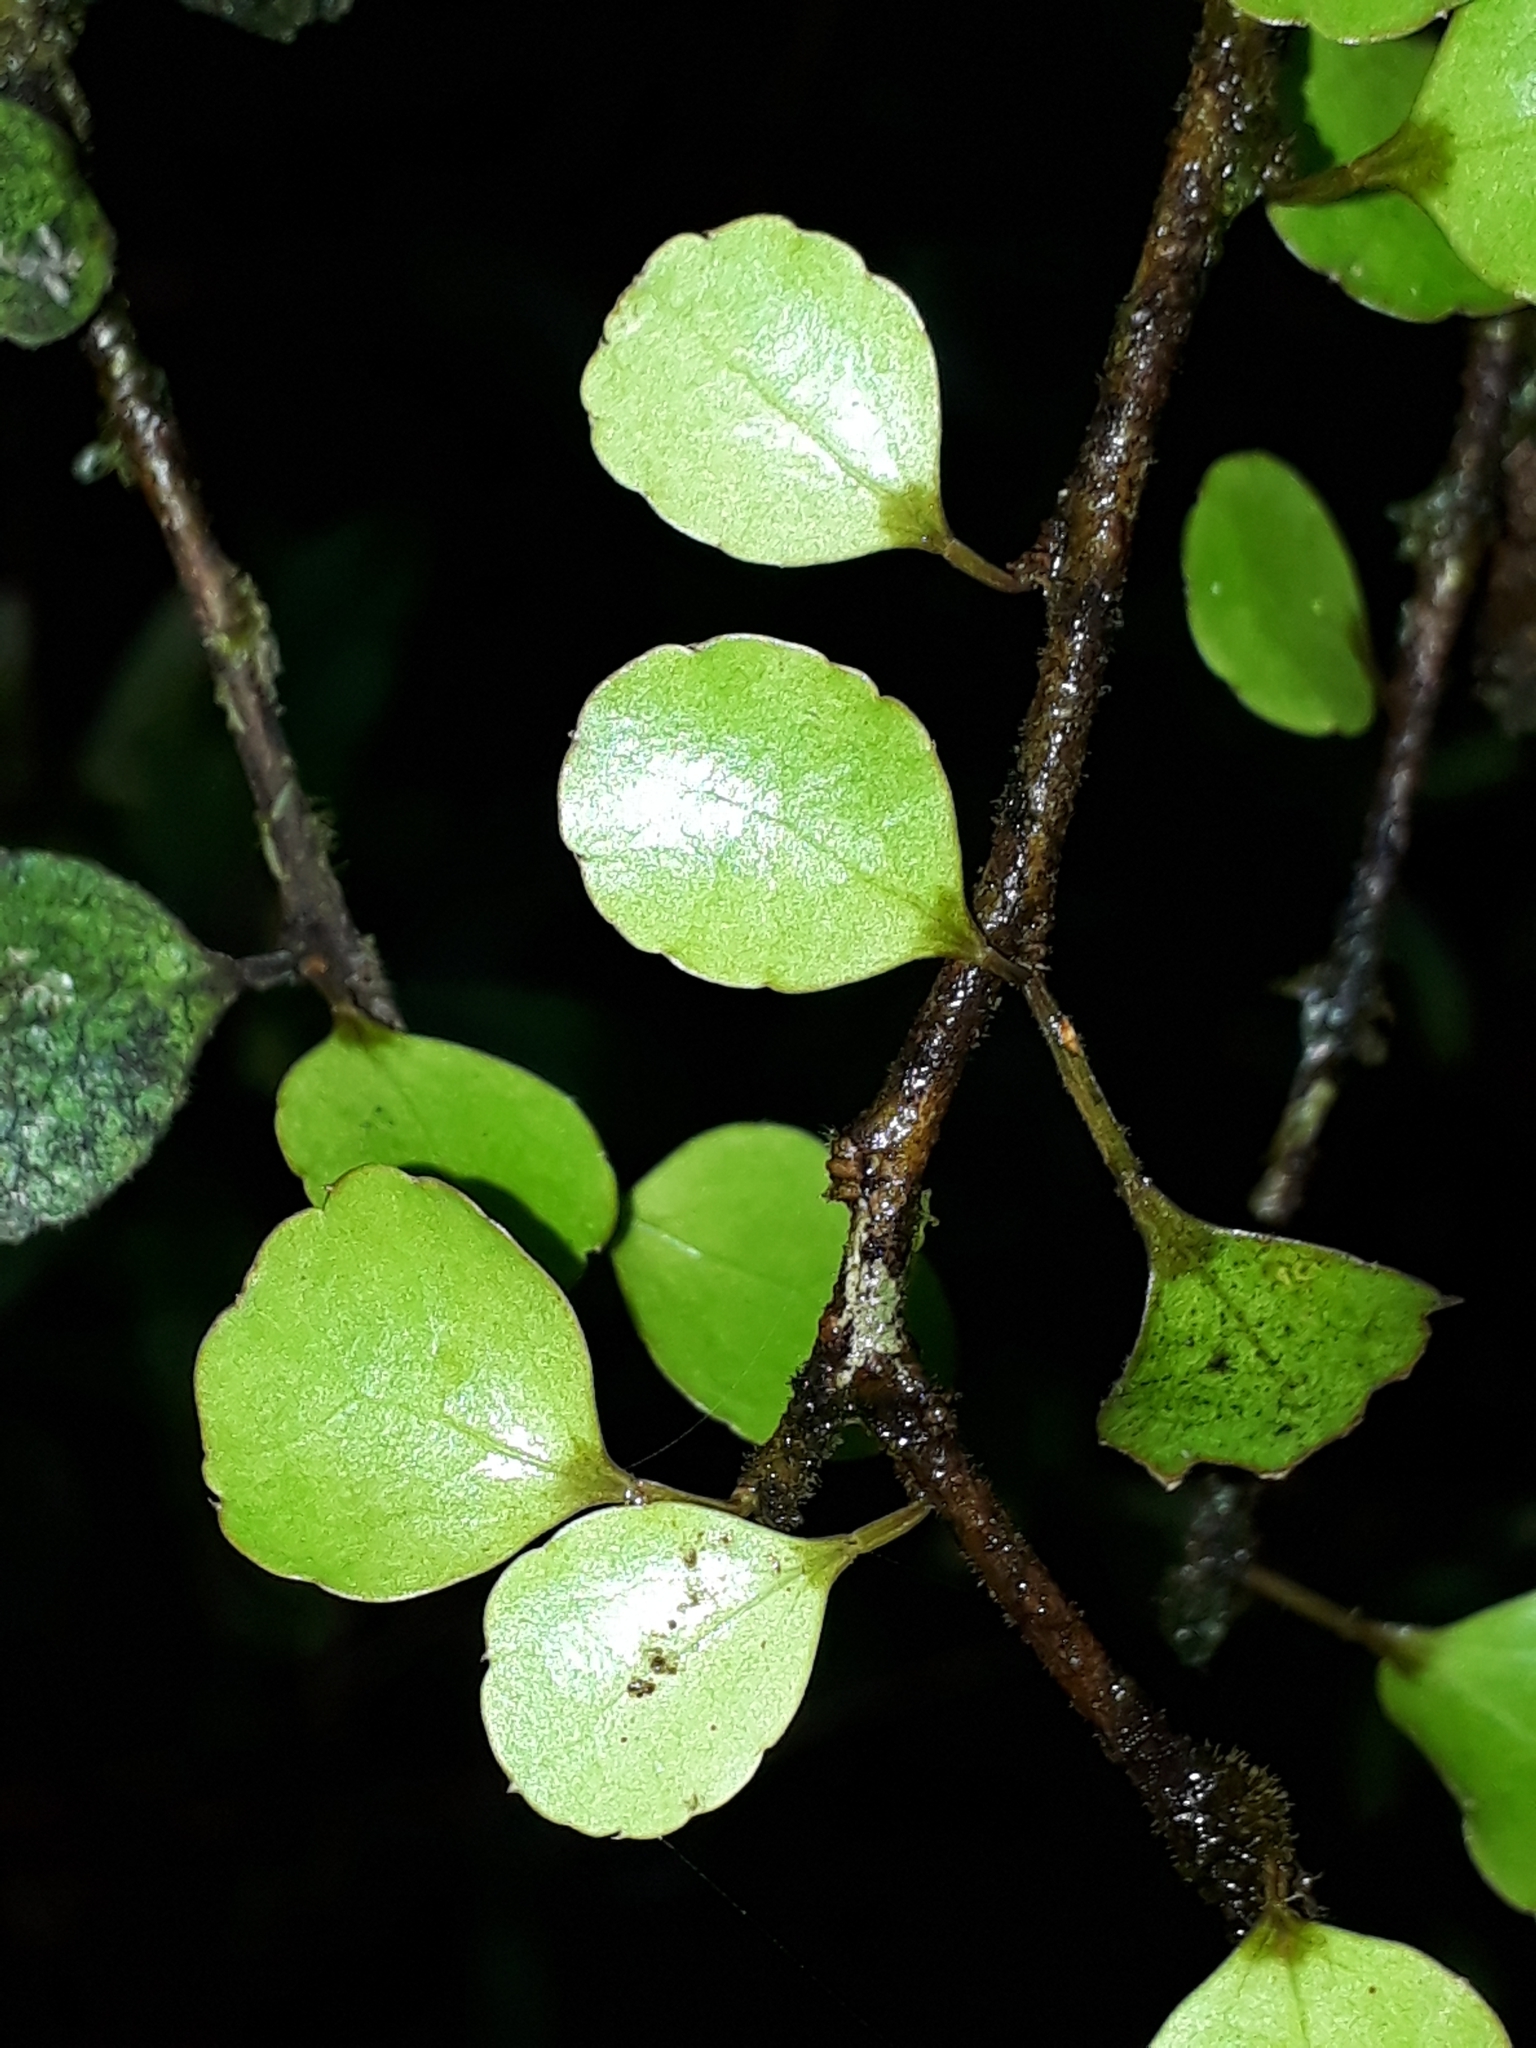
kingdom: Plantae
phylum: Tracheophyta
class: Magnoliopsida
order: Apiales
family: Araliaceae
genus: Raukaua
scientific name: Raukaua anomalus
